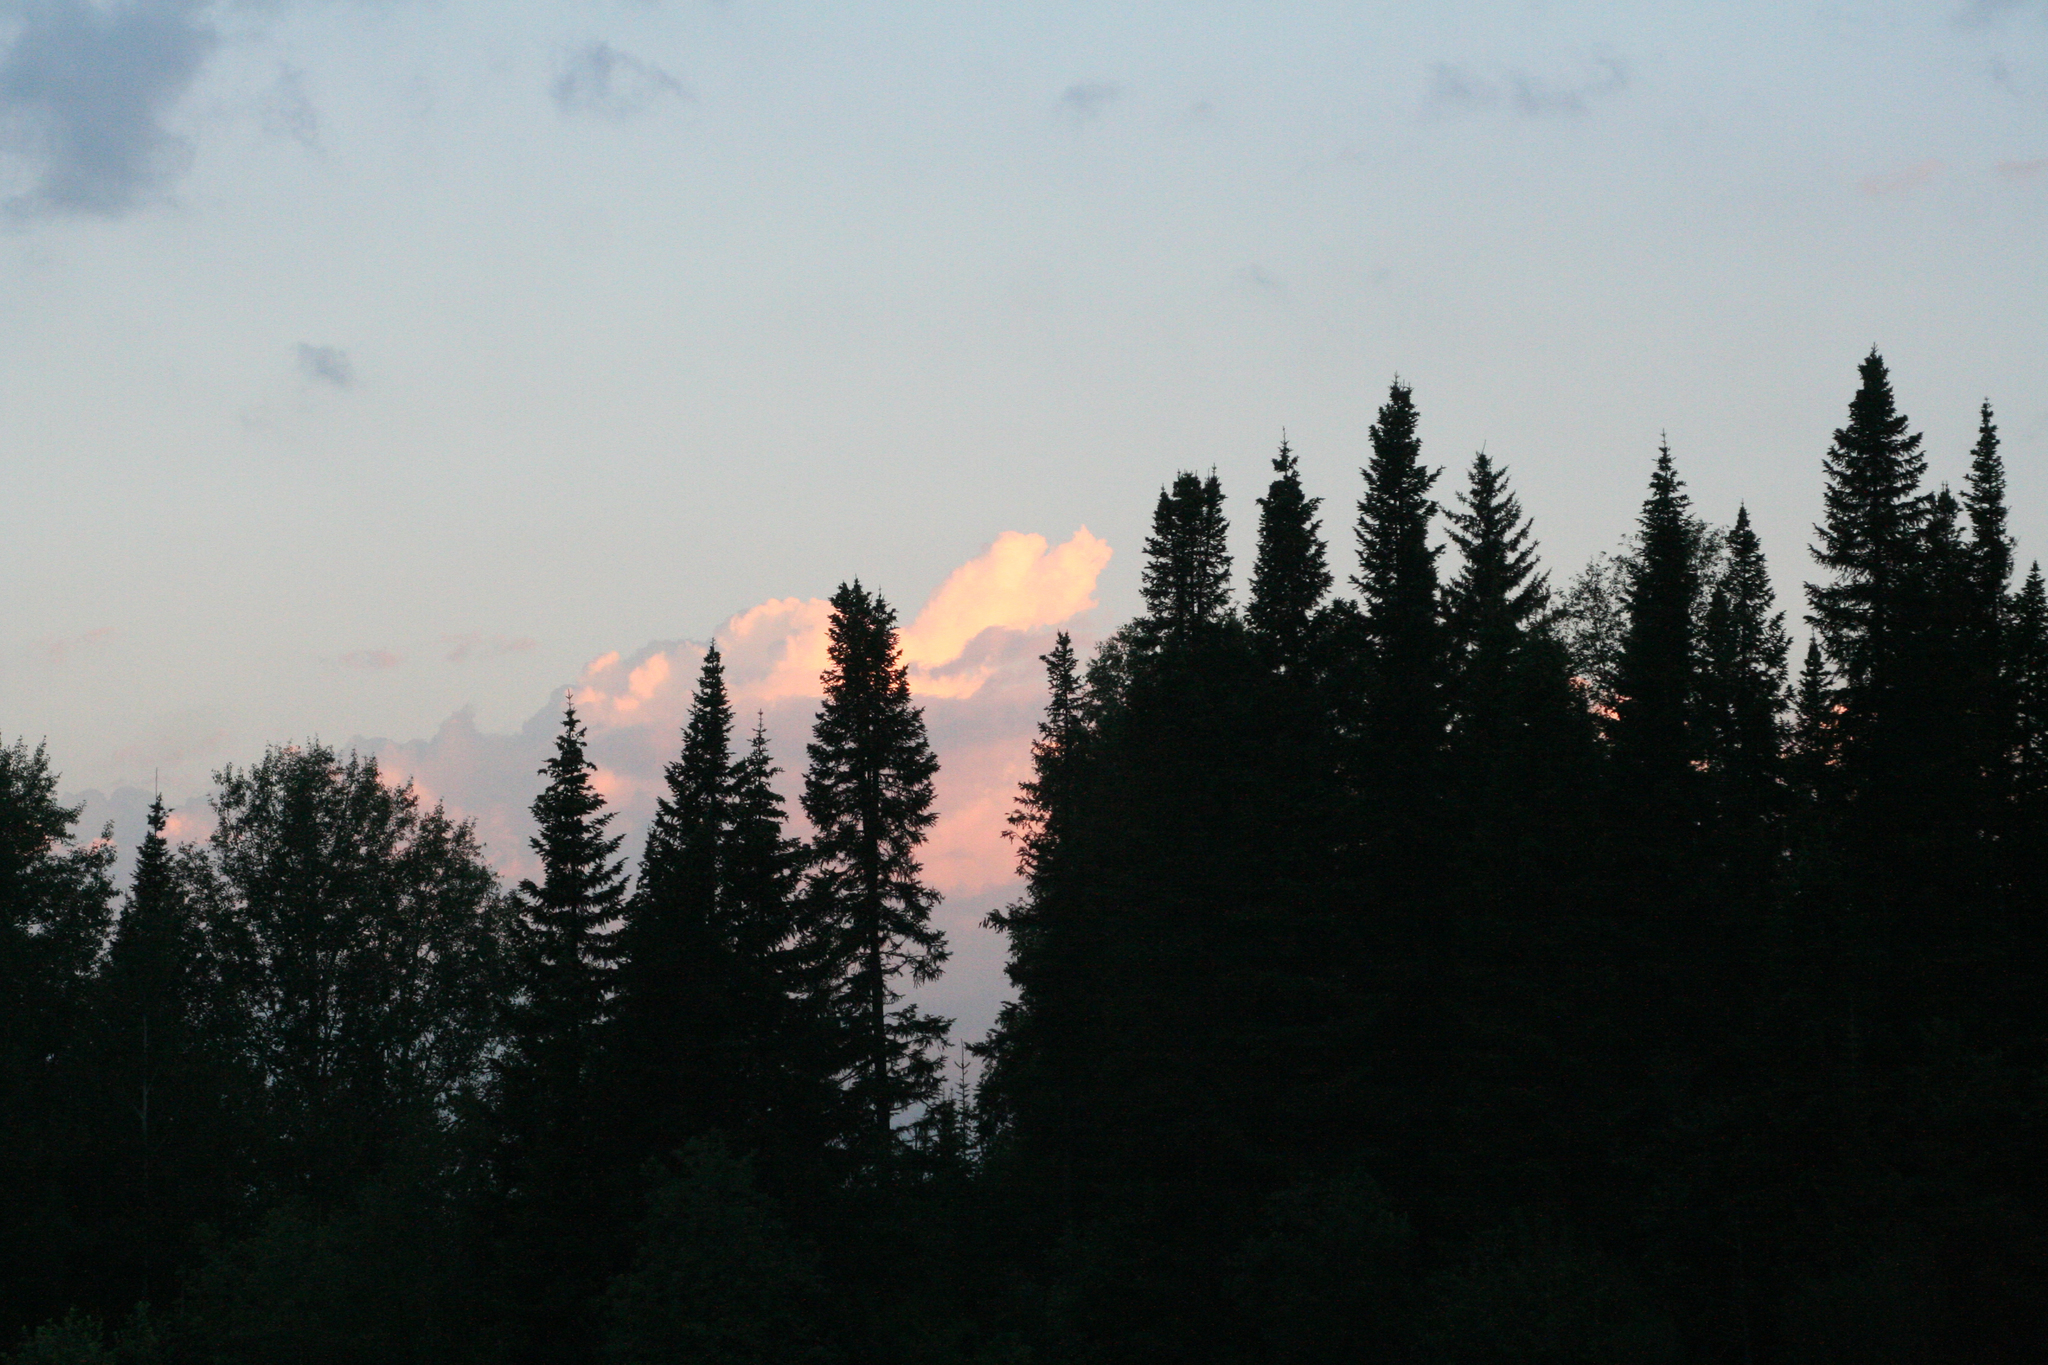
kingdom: Plantae
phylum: Tracheophyta
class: Pinopsida
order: Pinales
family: Pinaceae
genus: Abies
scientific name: Abies sibirica
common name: Siberian fir
